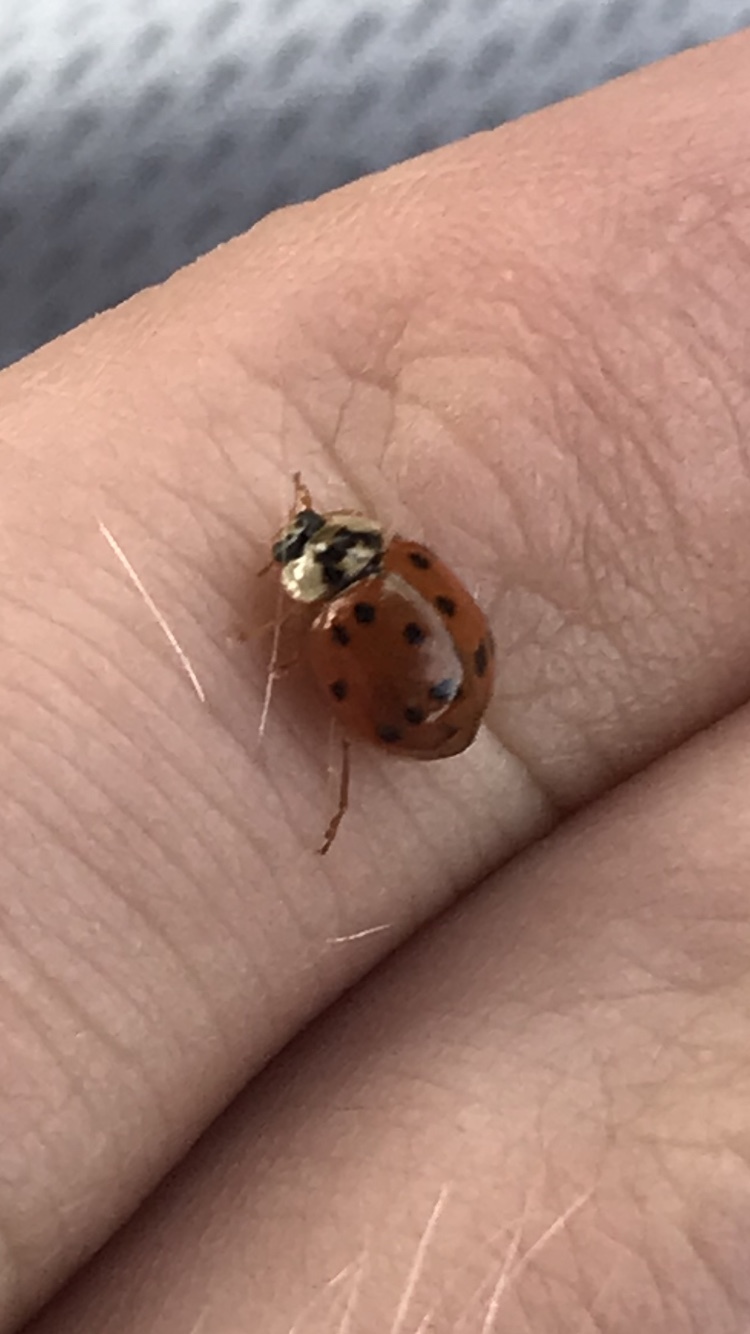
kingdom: Animalia
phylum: Arthropoda
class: Insecta
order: Coleoptera
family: Coccinellidae
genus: Harmonia
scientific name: Harmonia axyridis
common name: Harlequin ladybird
